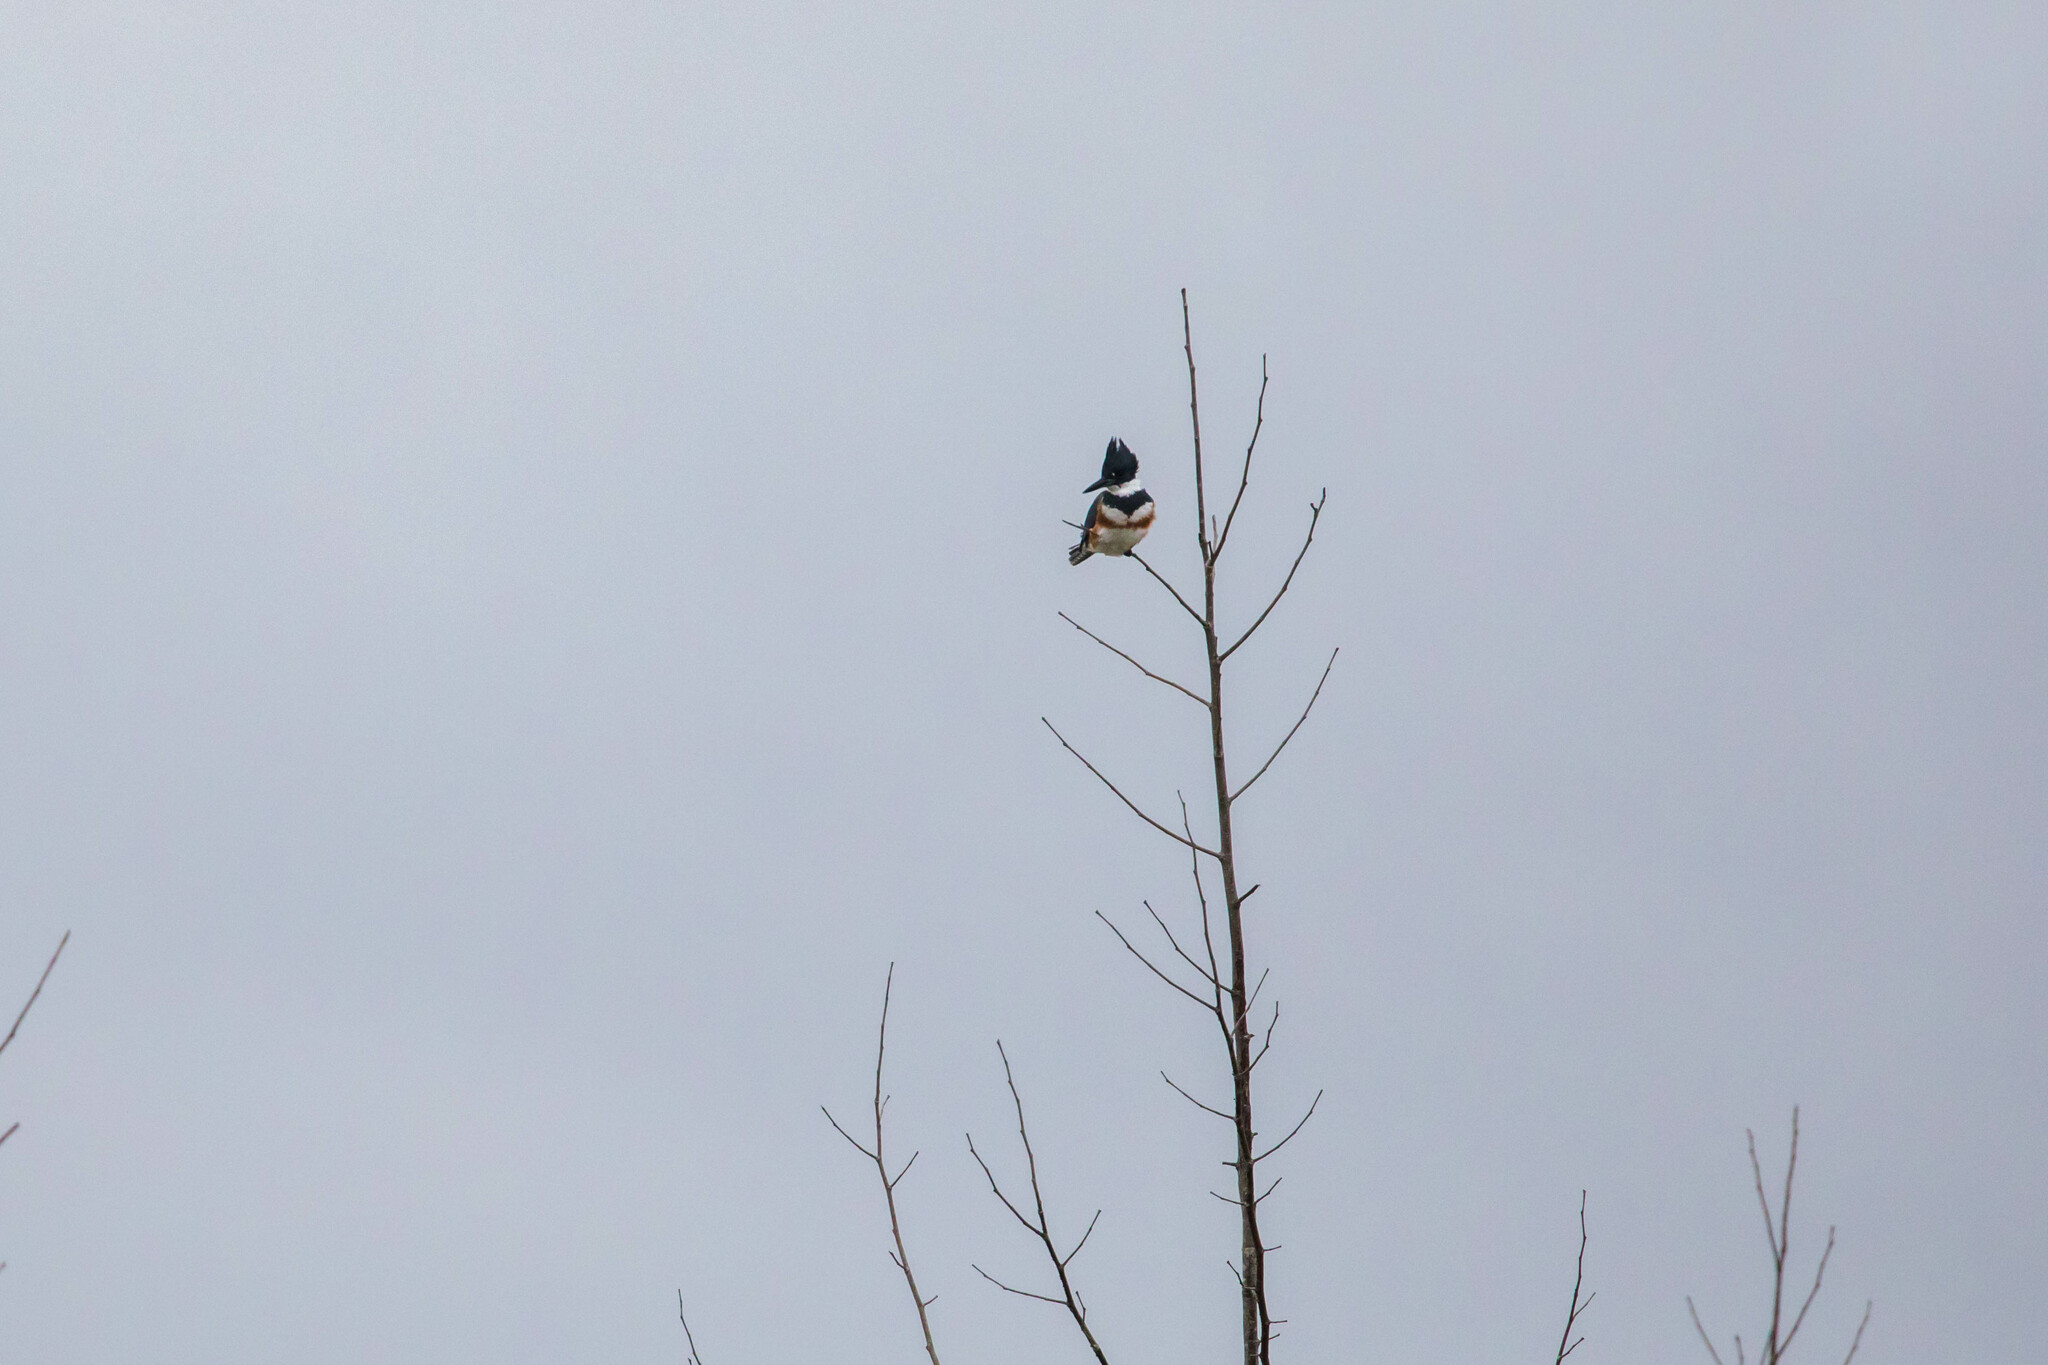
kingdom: Animalia
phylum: Chordata
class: Aves
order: Coraciiformes
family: Alcedinidae
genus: Megaceryle
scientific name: Megaceryle alcyon
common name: Belted kingfisher
